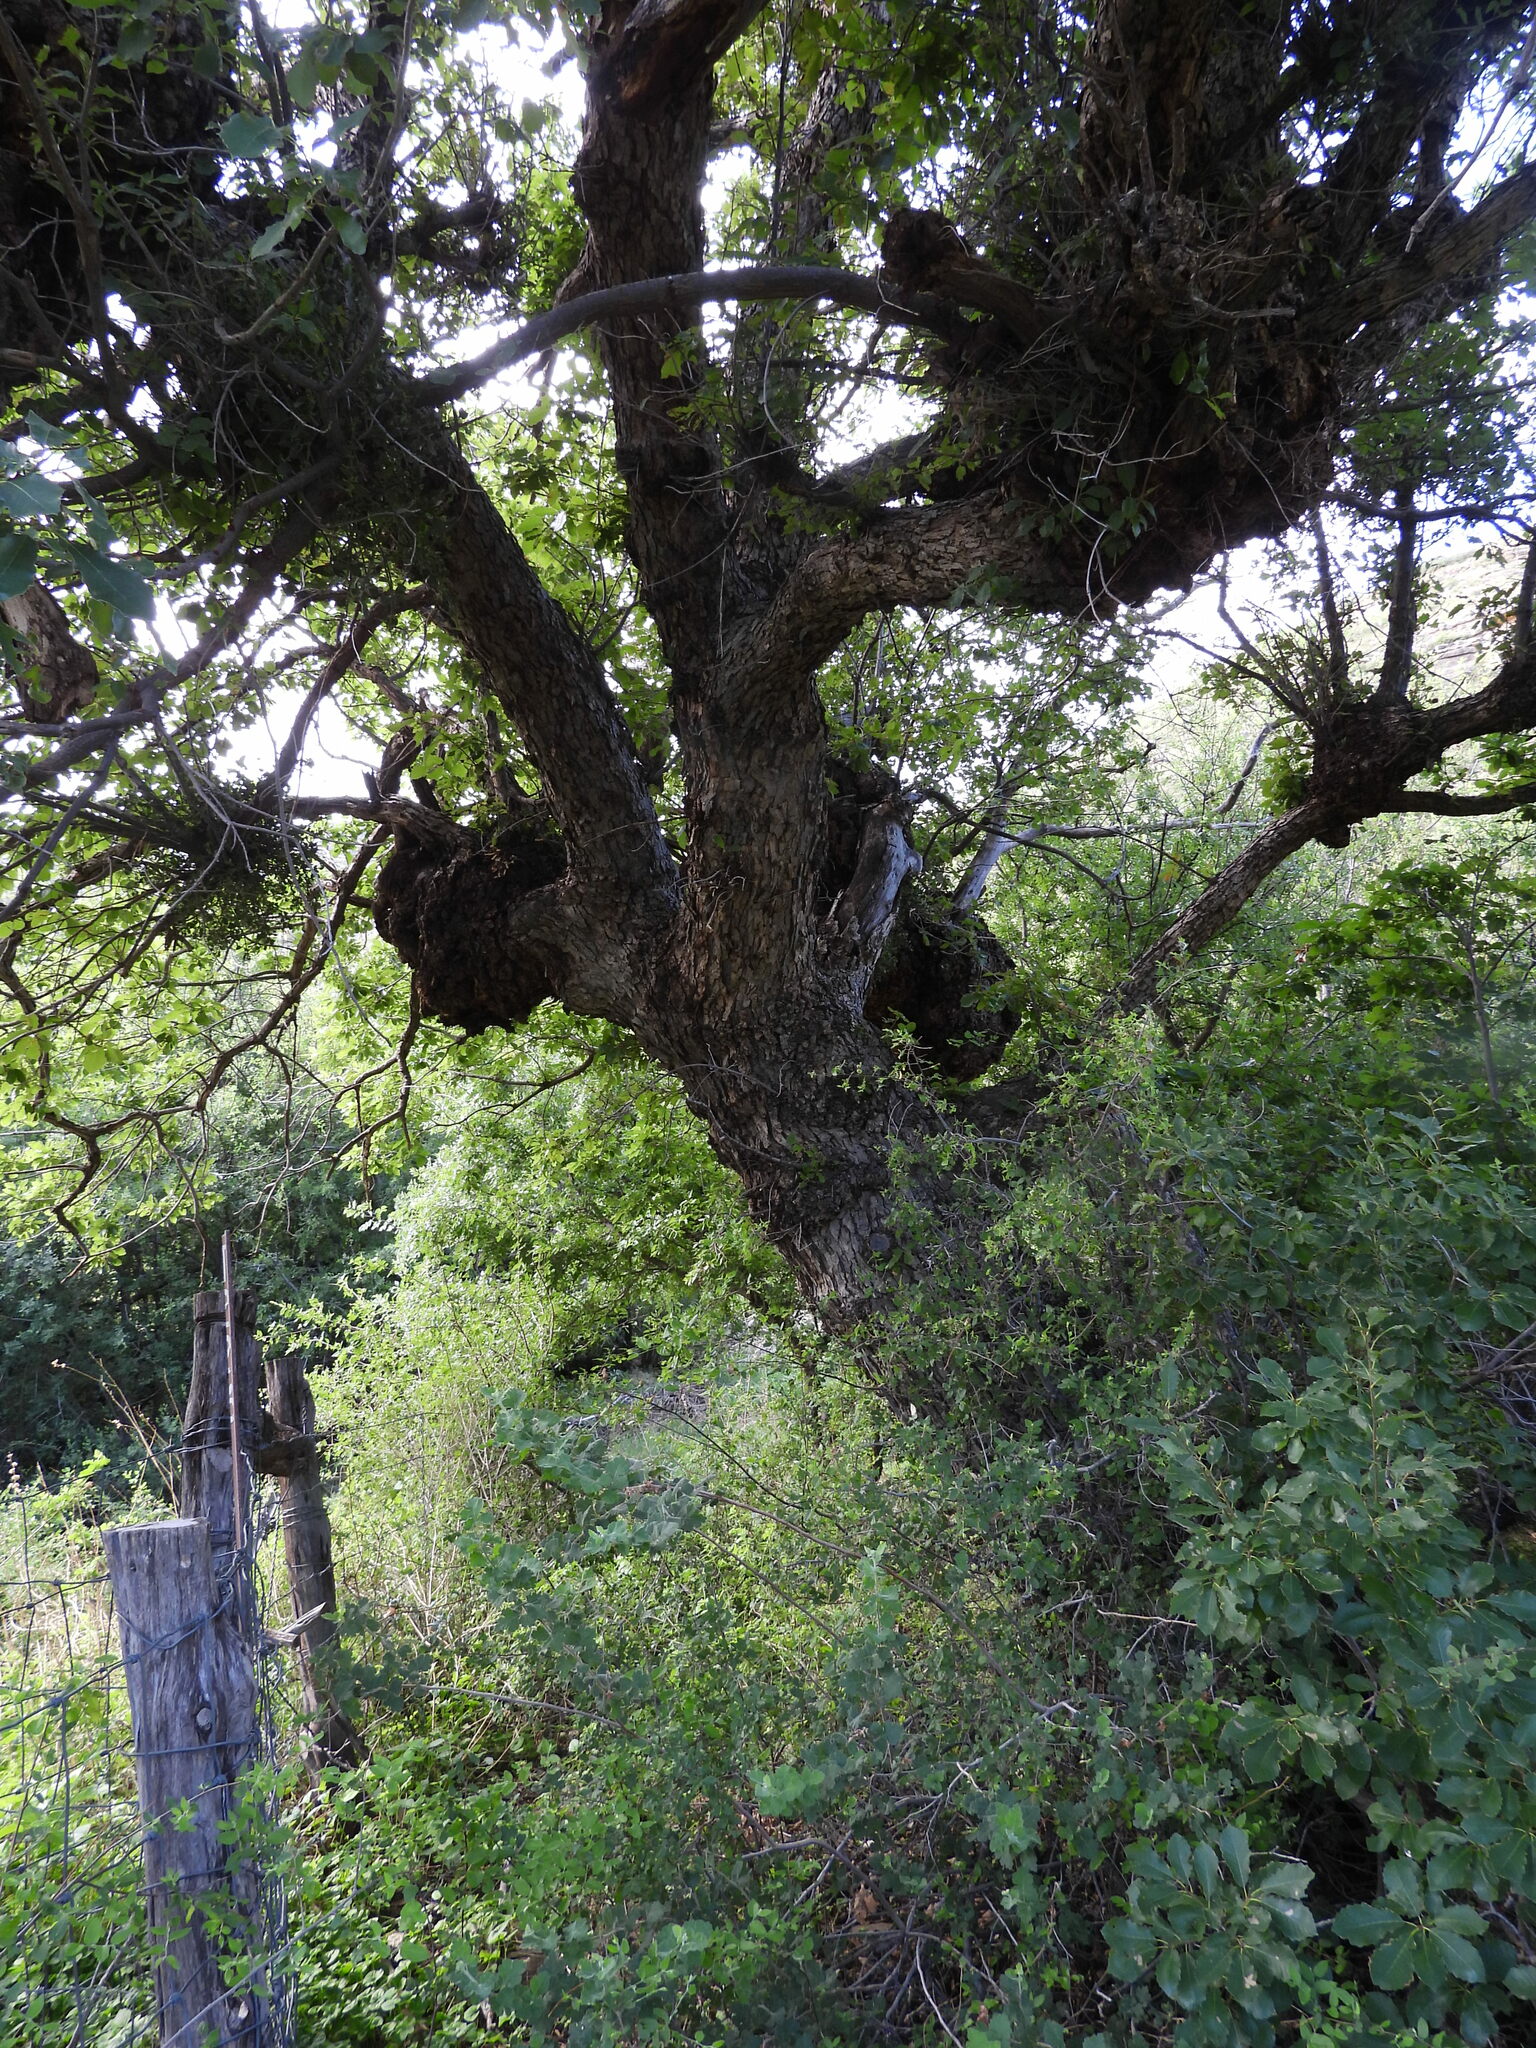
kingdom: Plantae
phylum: Tracheophyta
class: Magnoliopsida
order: Fagales
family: Fagaceae
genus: Quercus
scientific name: Quercus muehlenbergii
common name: Chinkapin oak
